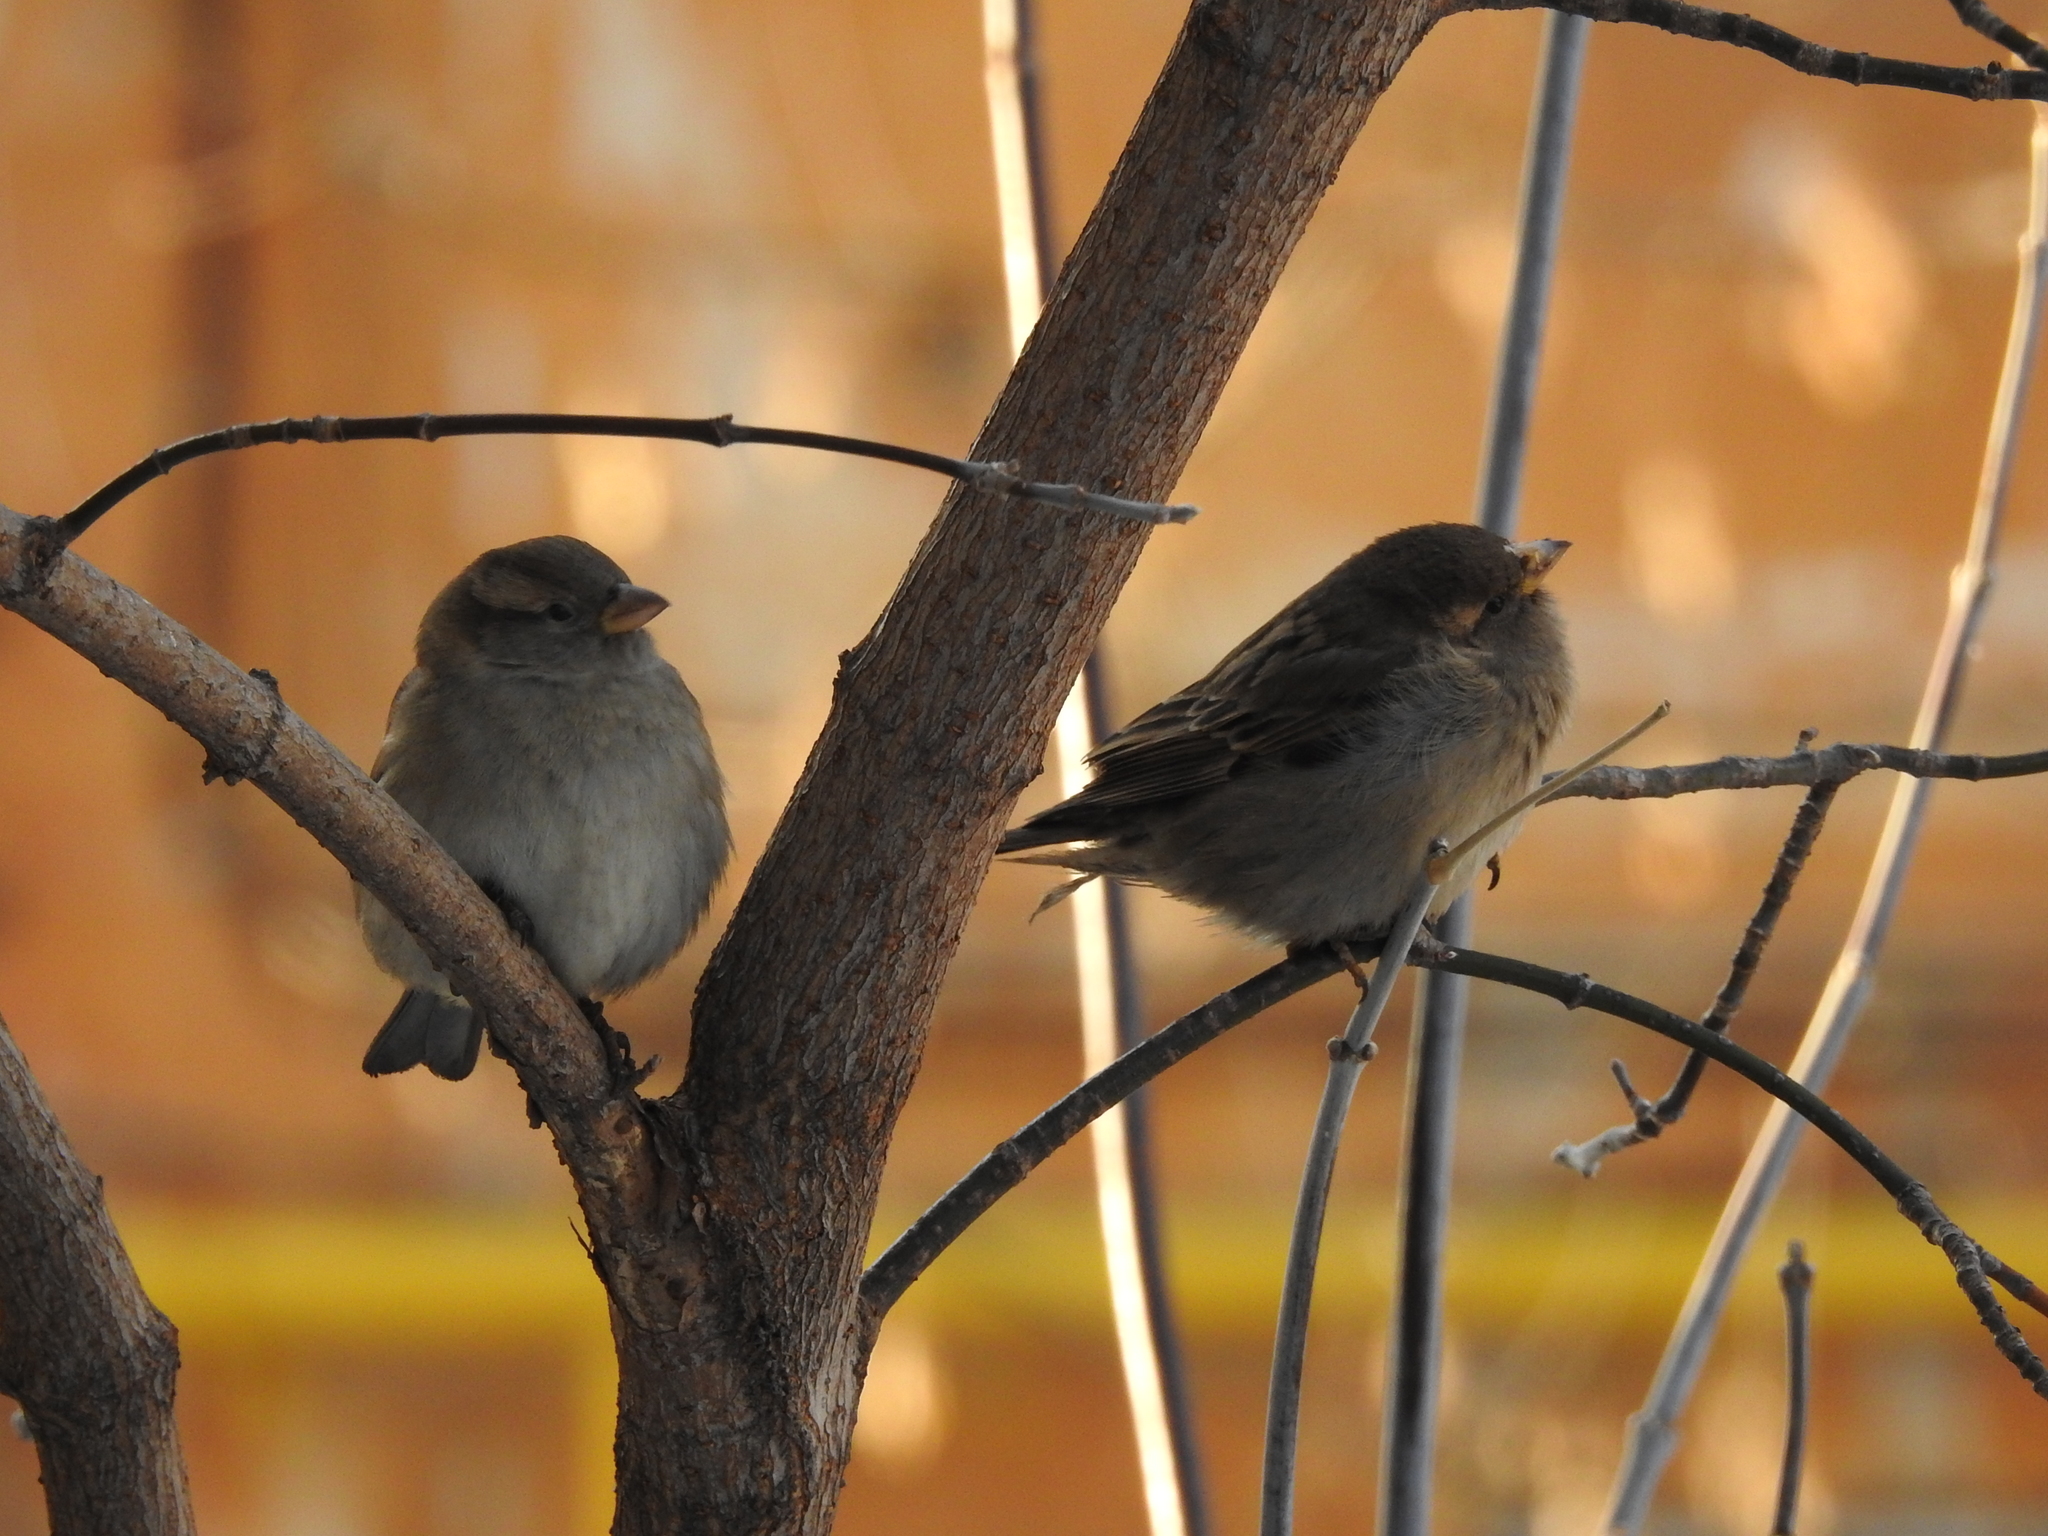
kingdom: Animalia
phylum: Chordata
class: Aves
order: Passeriformes
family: Passeridae
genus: Passer
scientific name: Passer domesticus
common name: House sparrow
